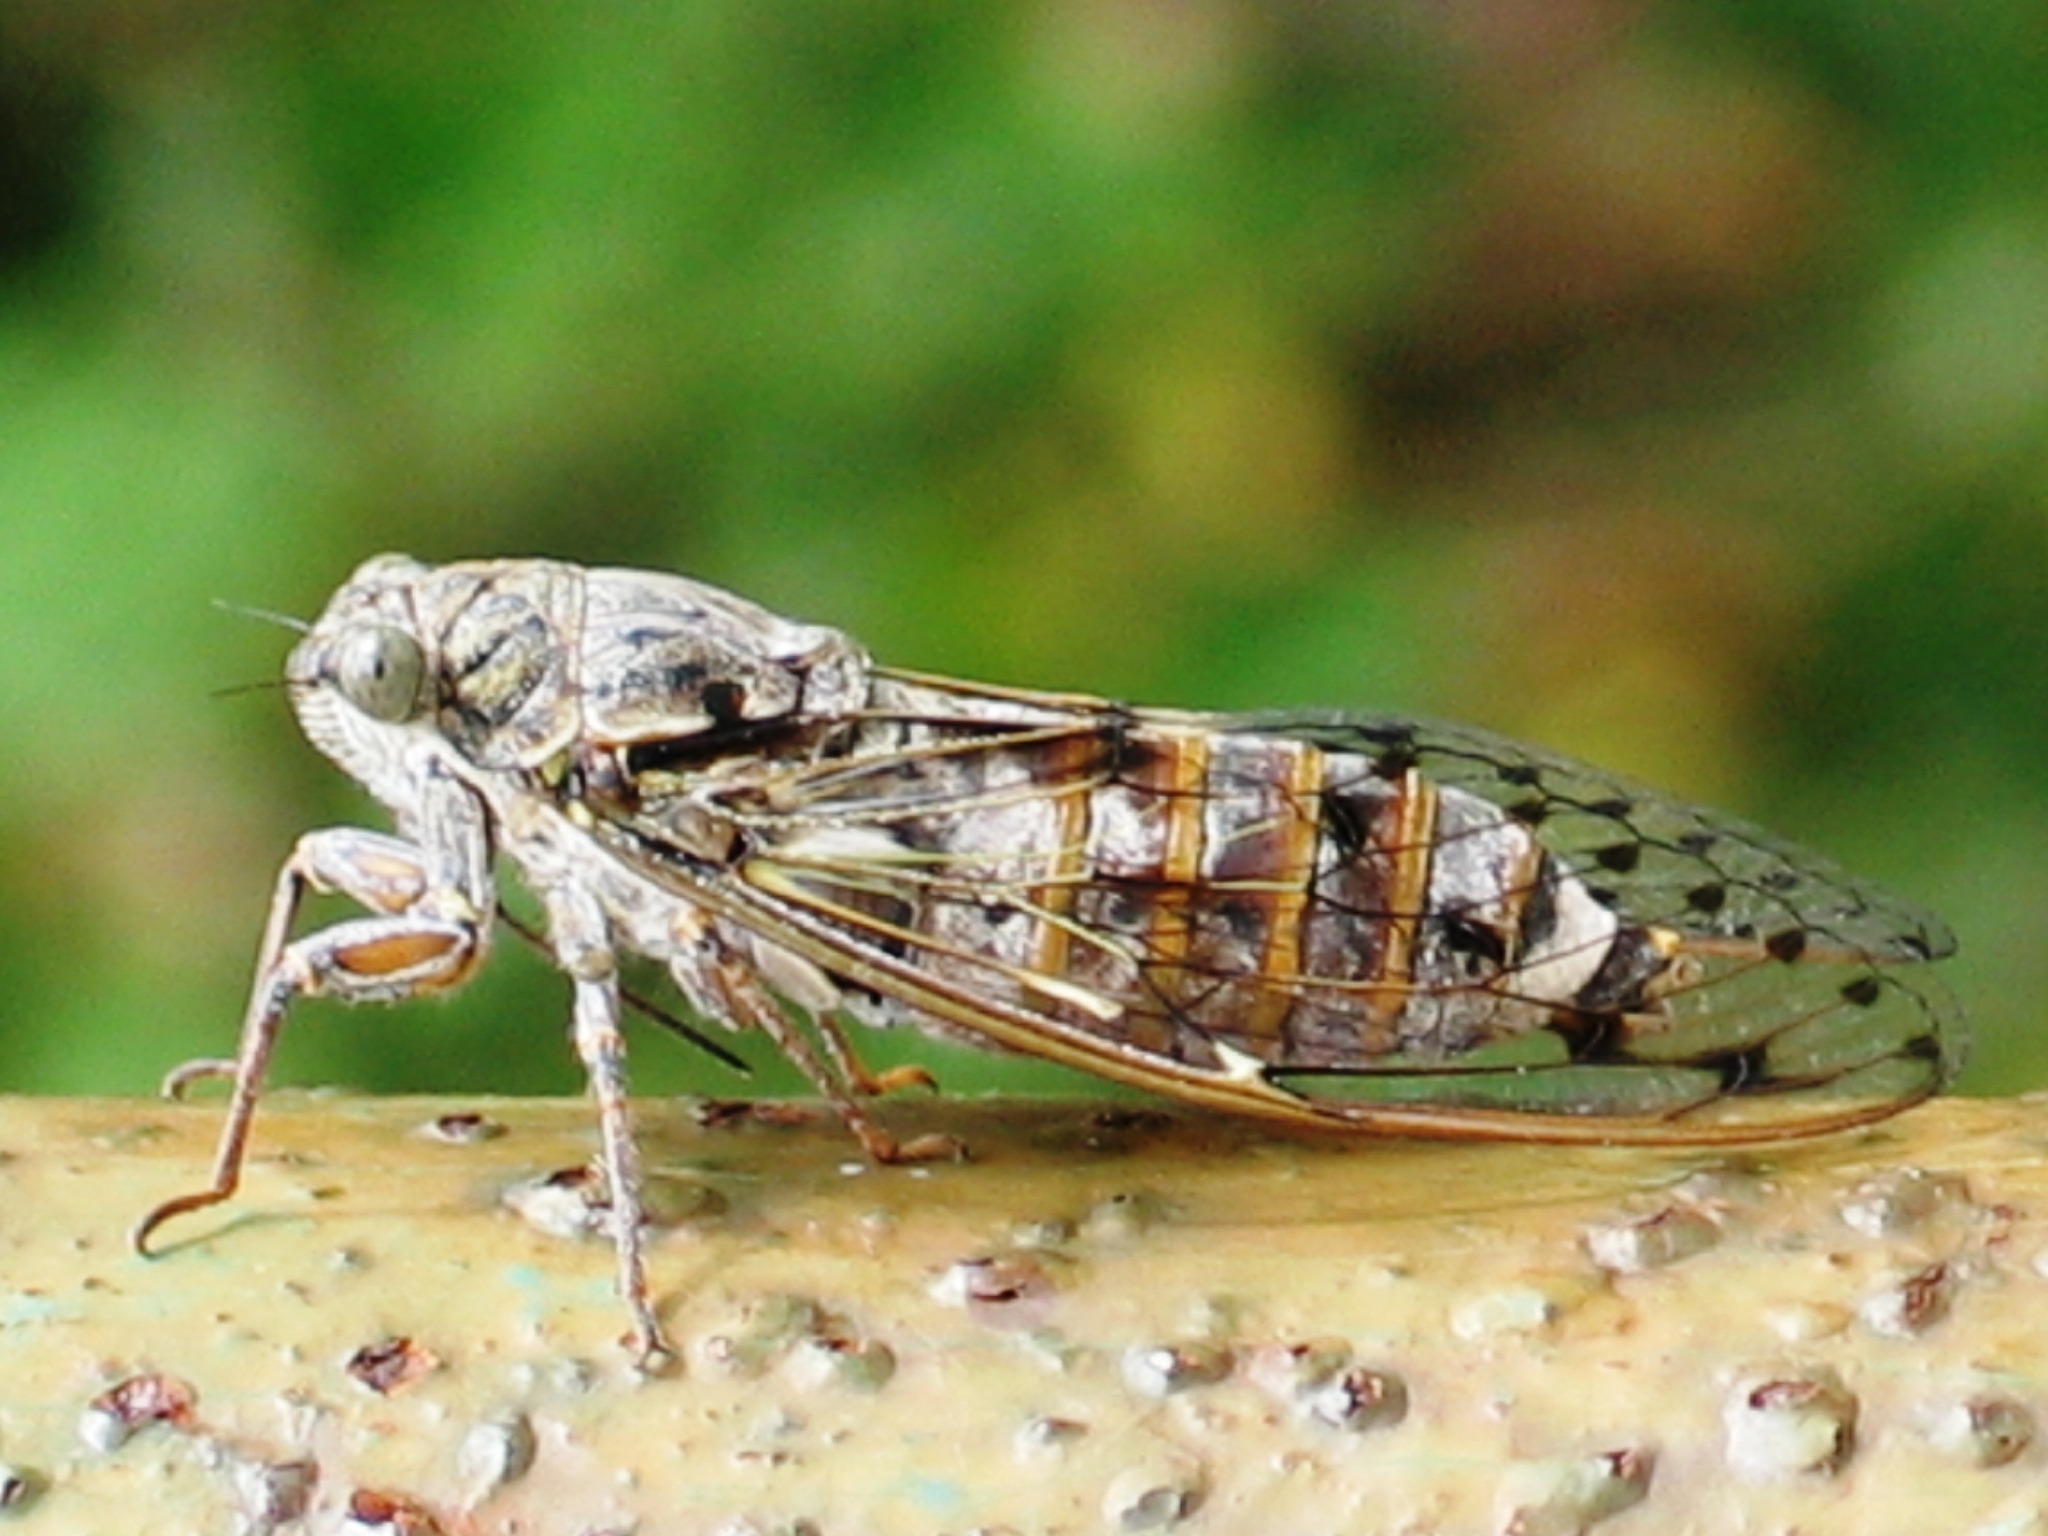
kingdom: Animalia
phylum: Arthropoda
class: Insecta
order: Hemiptera
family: Cicadidae
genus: Cicada
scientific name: Cicada orni
